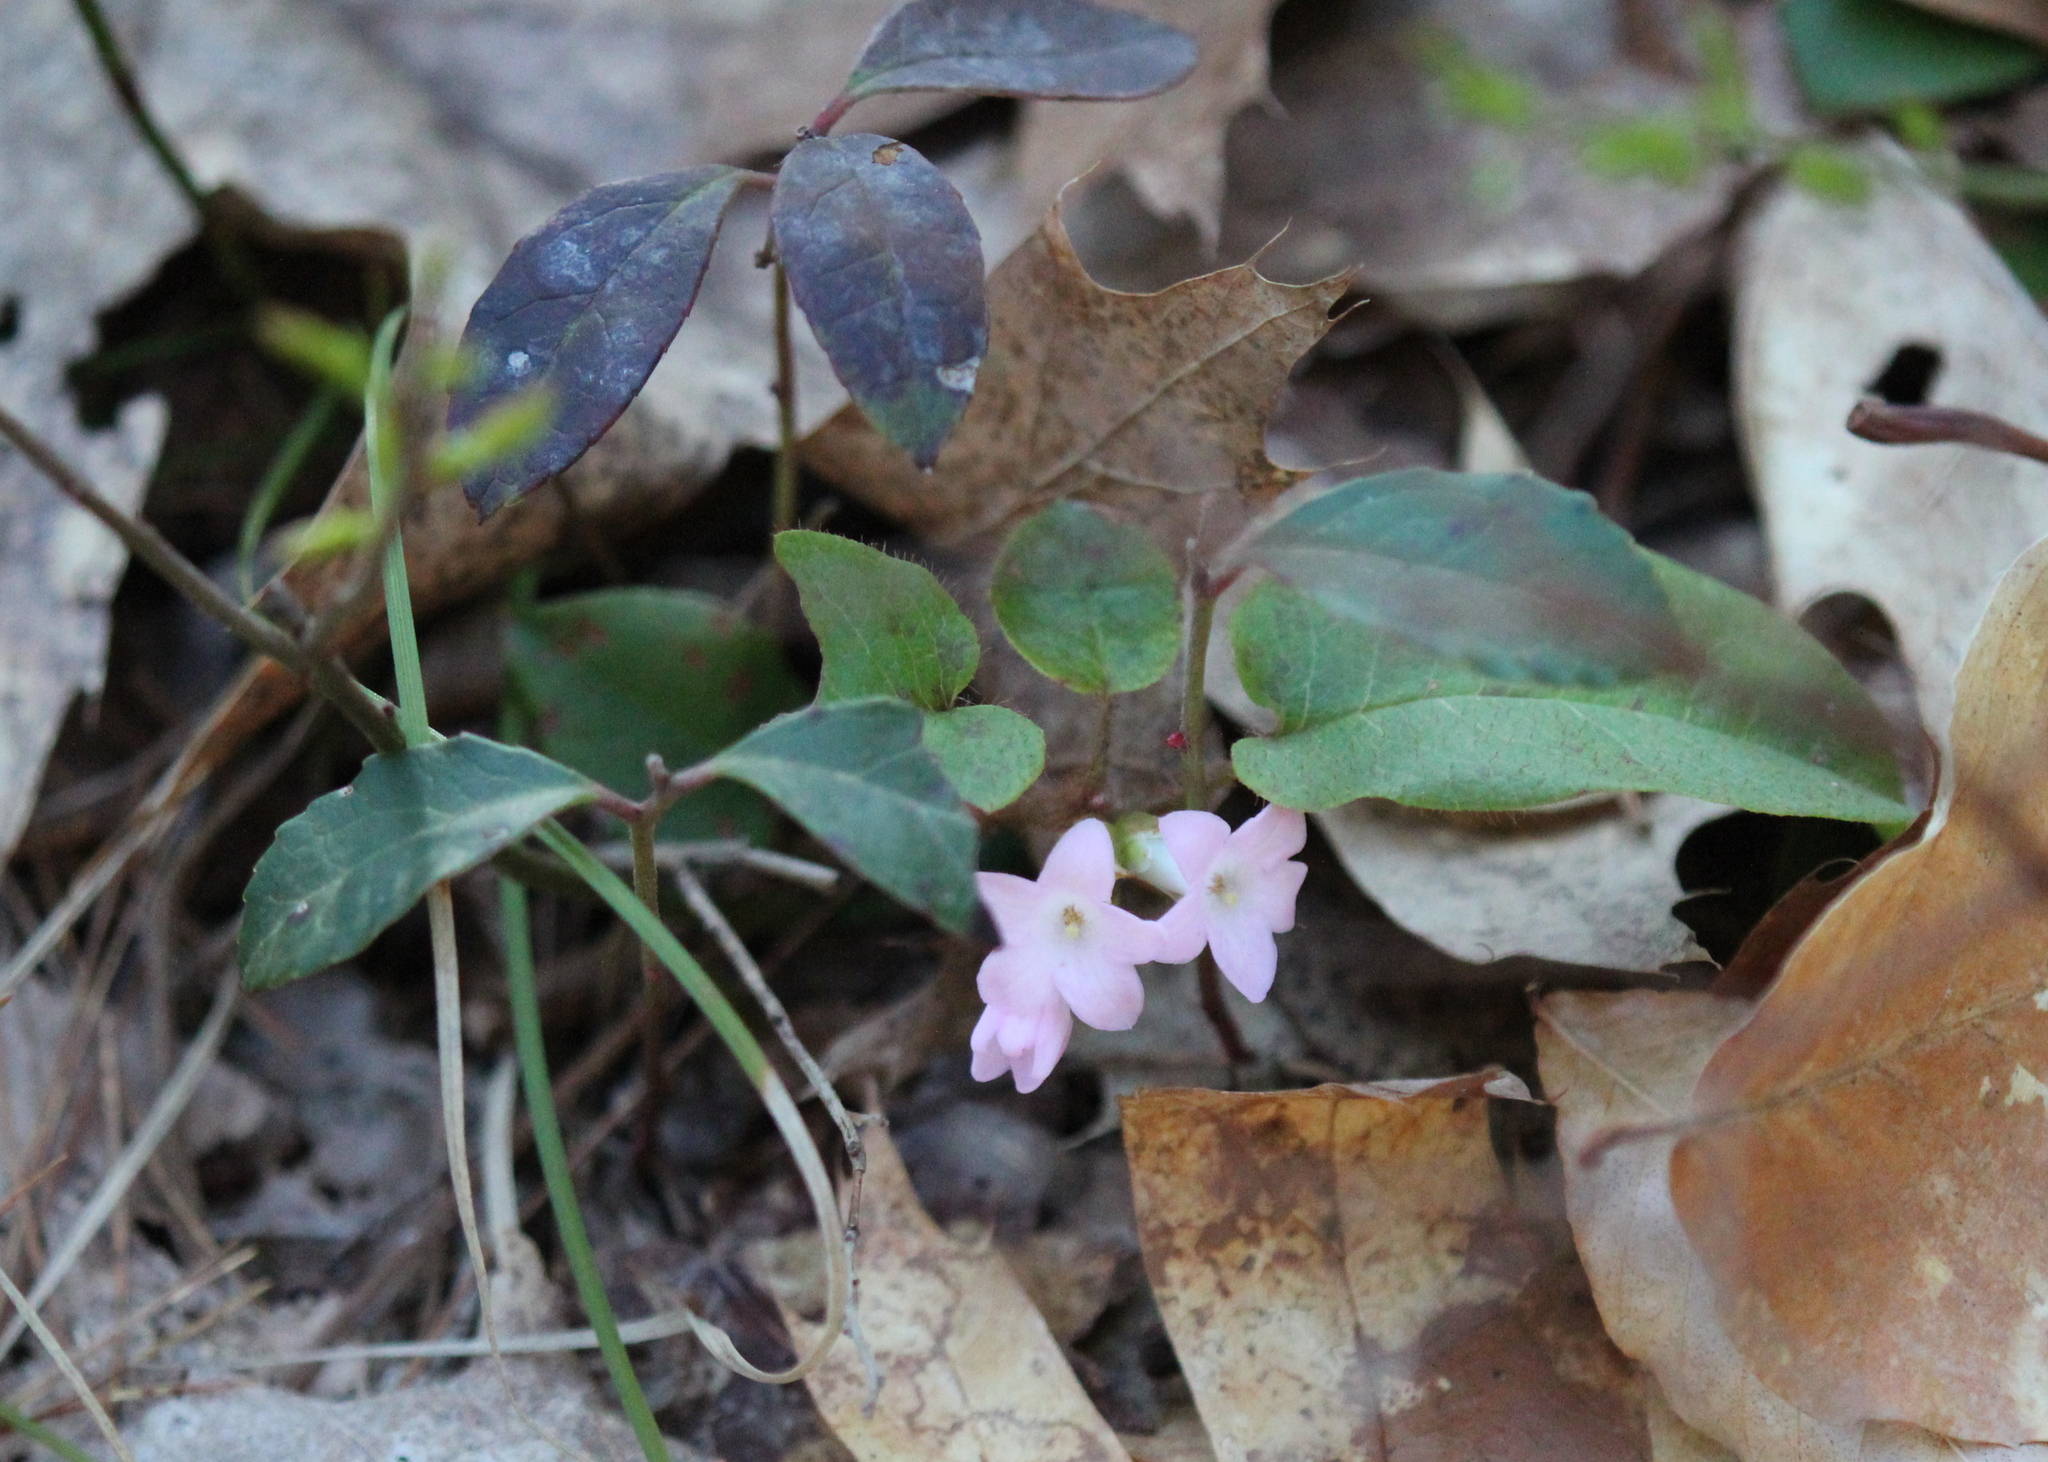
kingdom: Plantae
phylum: Tracheophyta
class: Magnoliopsida
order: Ericales
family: Ericaceae
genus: Gaultheria
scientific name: Gaultheria procumbens
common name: Checkerberry
